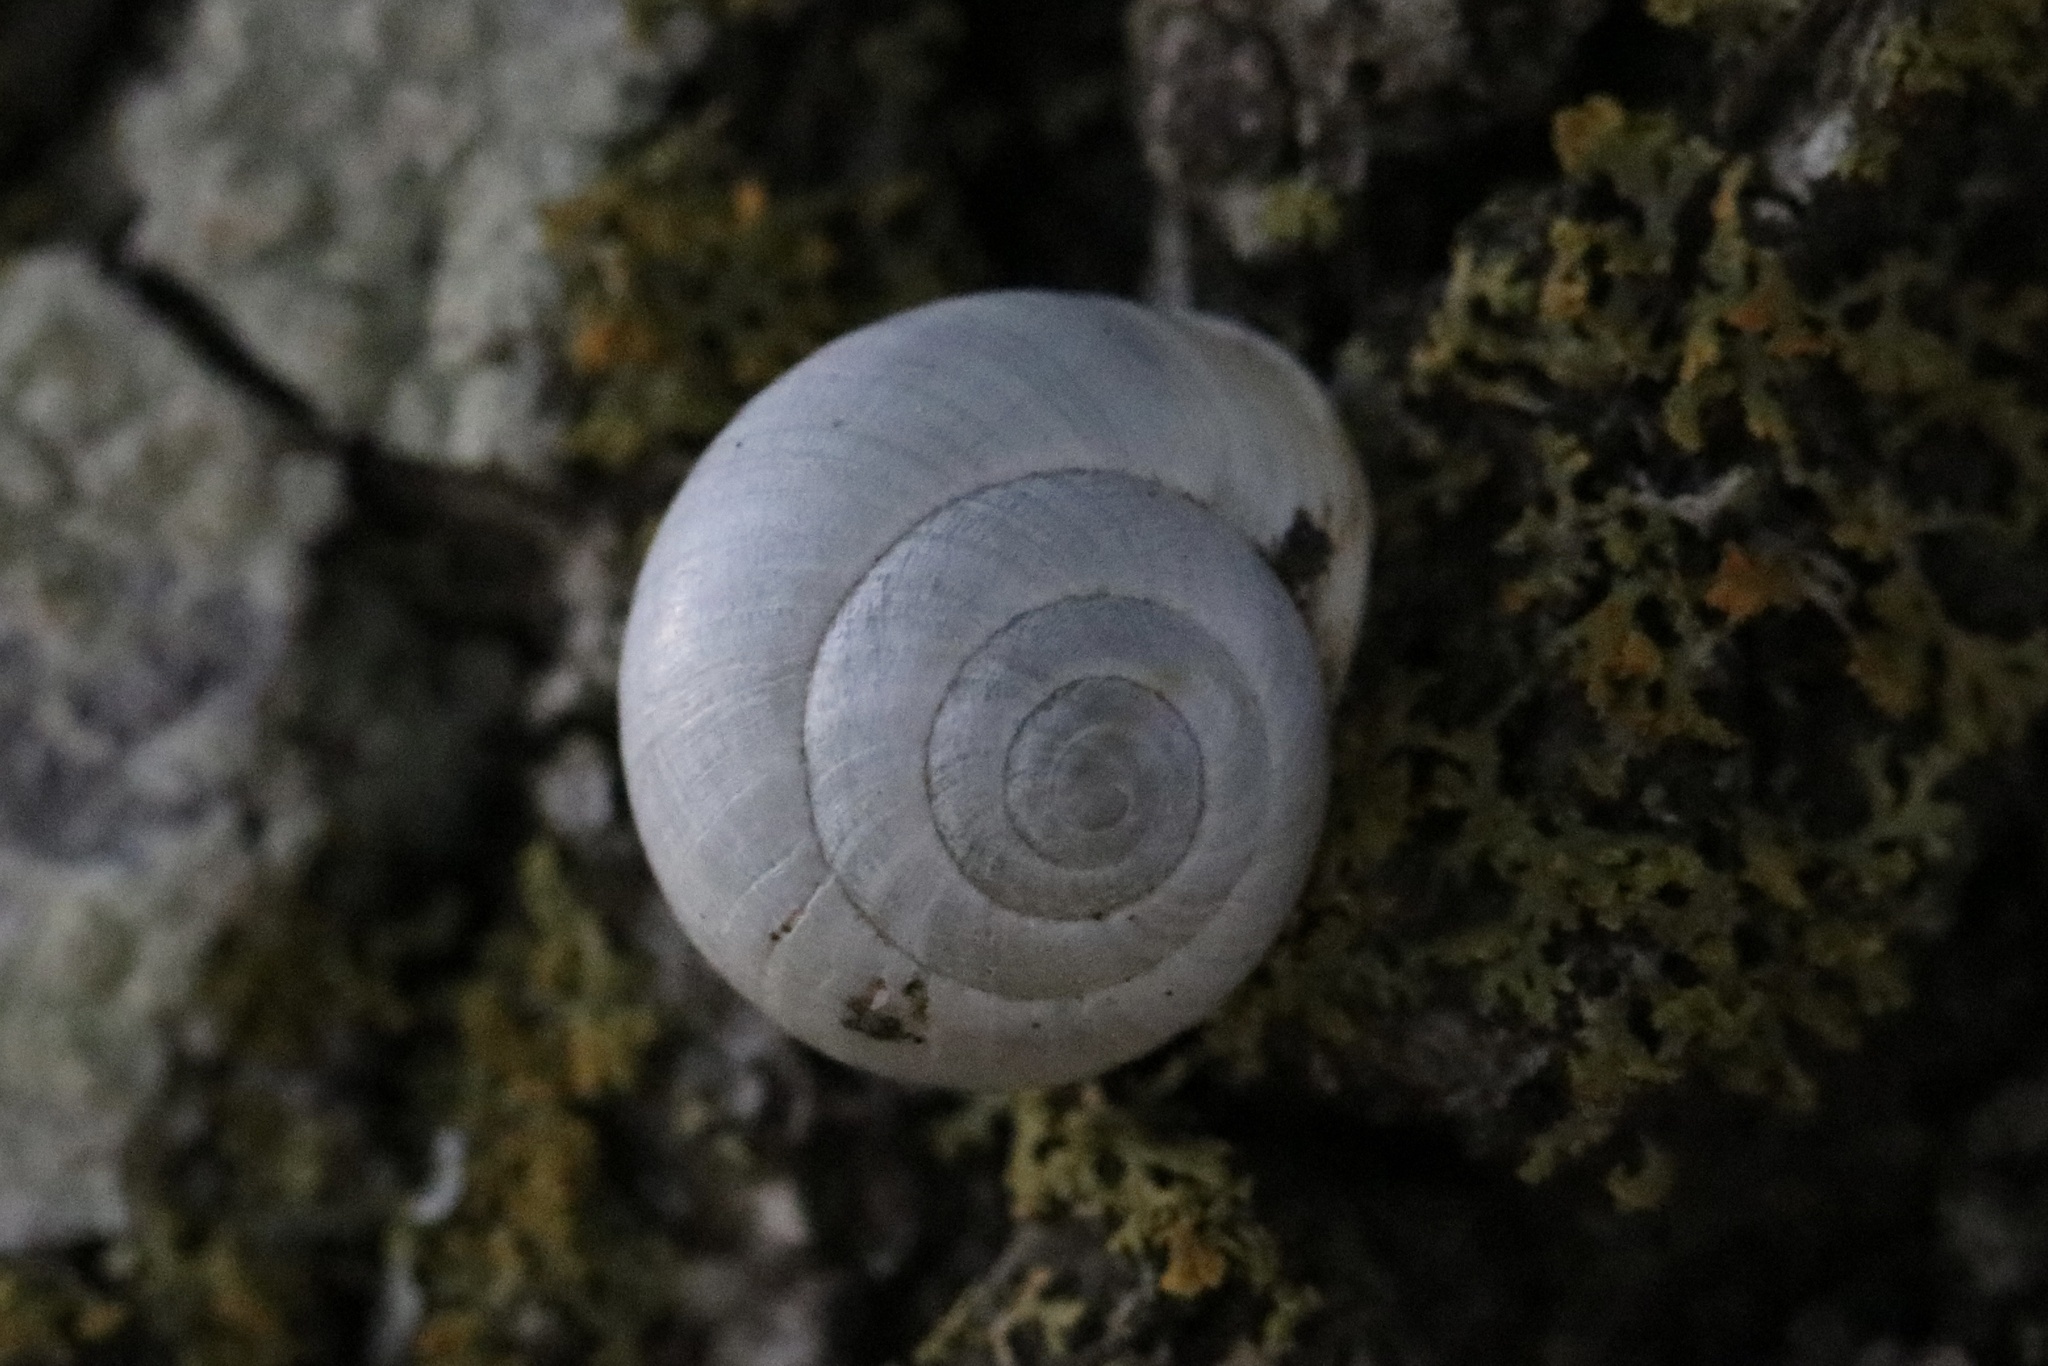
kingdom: Animalia
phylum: Mollusca
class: Gastropoda
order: Cycloneritida
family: Helicinidae
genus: Helicina
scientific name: Helicina orbiculata
